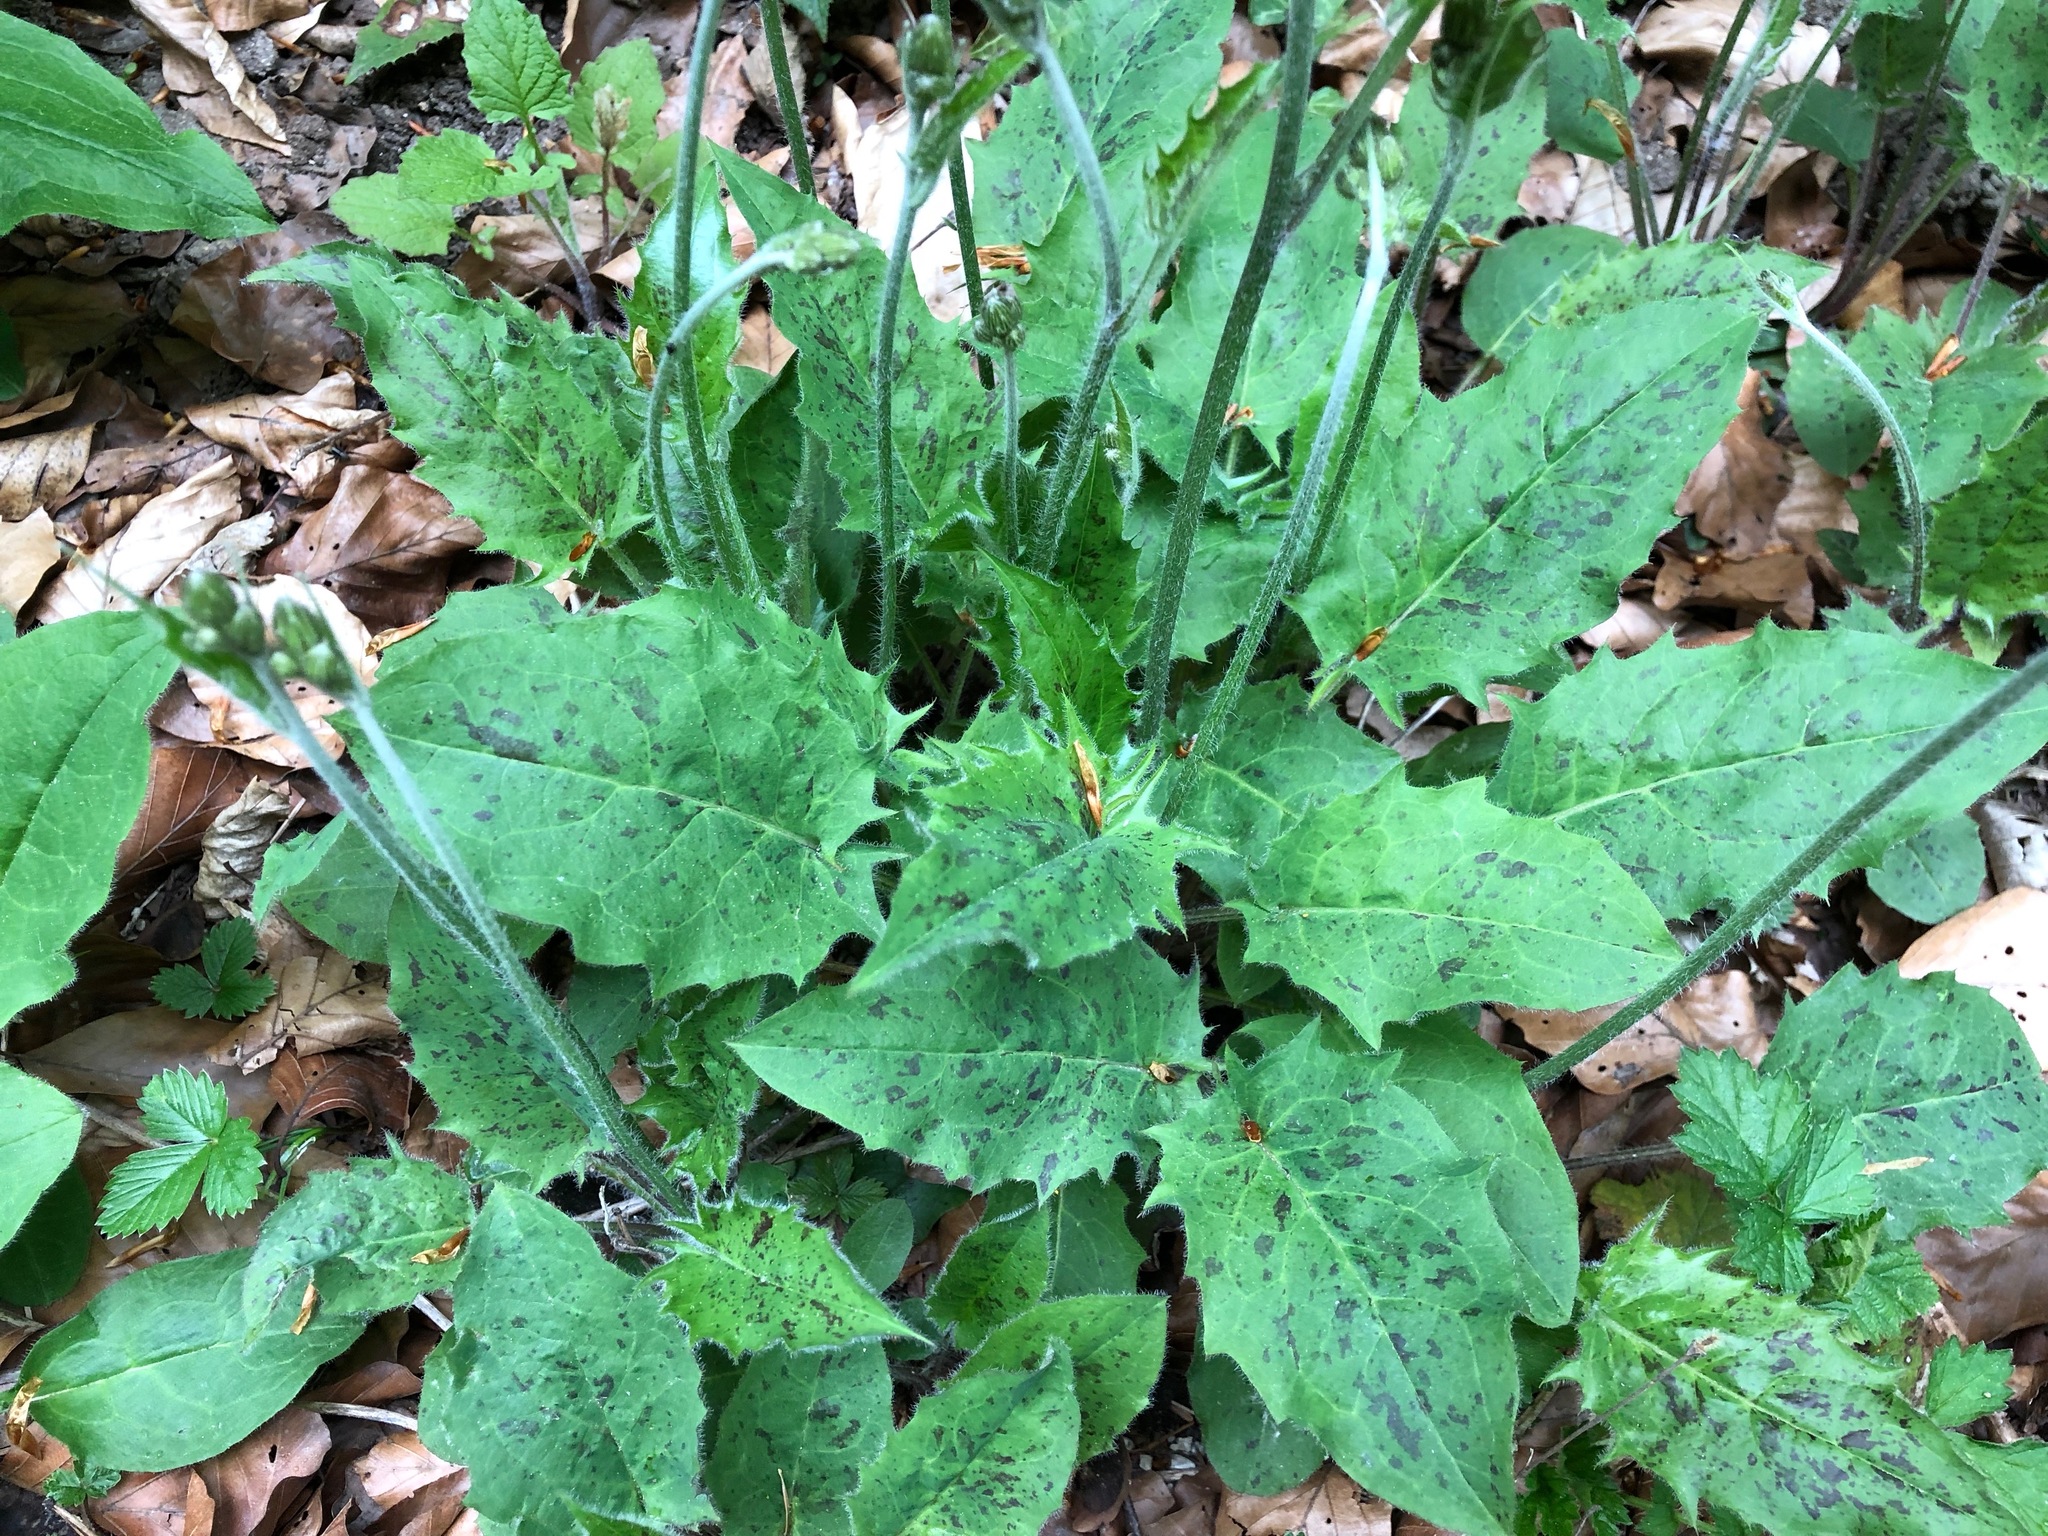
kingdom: Plantae
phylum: Tracheophyta
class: Magnoliopsida
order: Asterales
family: Asteraceae
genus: Hieracium
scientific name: Hieracium maculatum
